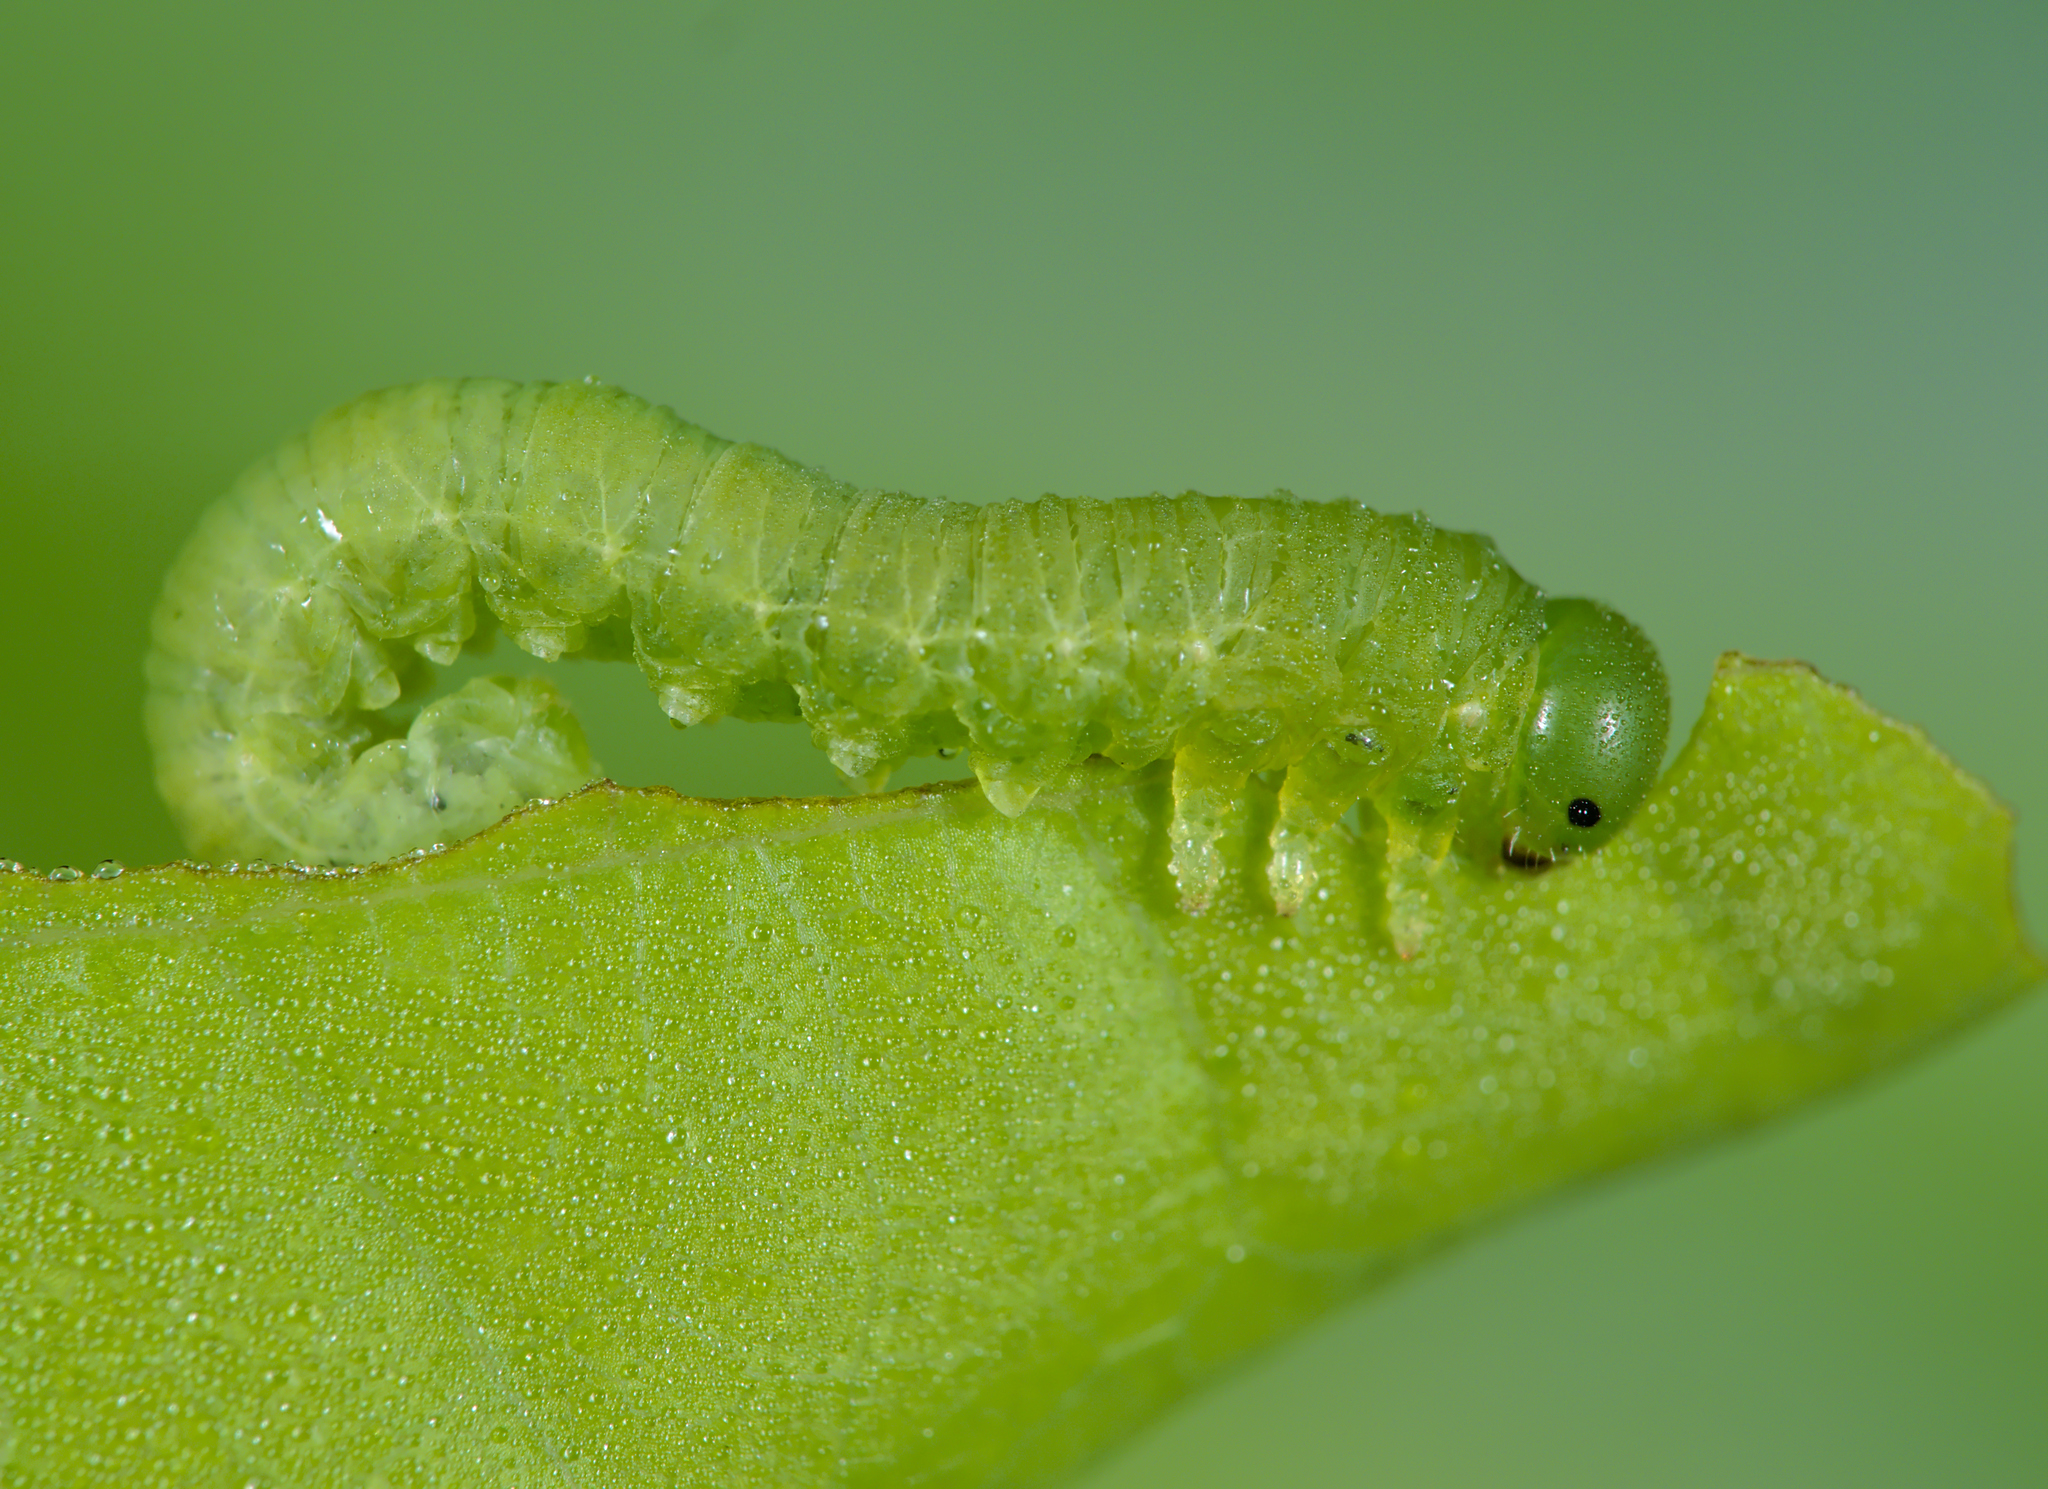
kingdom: Animalia
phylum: Arthropoda
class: Insecta
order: Hymenoptera
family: Tenthredinidae
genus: Mesoneura
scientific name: Mesoneura opaca
